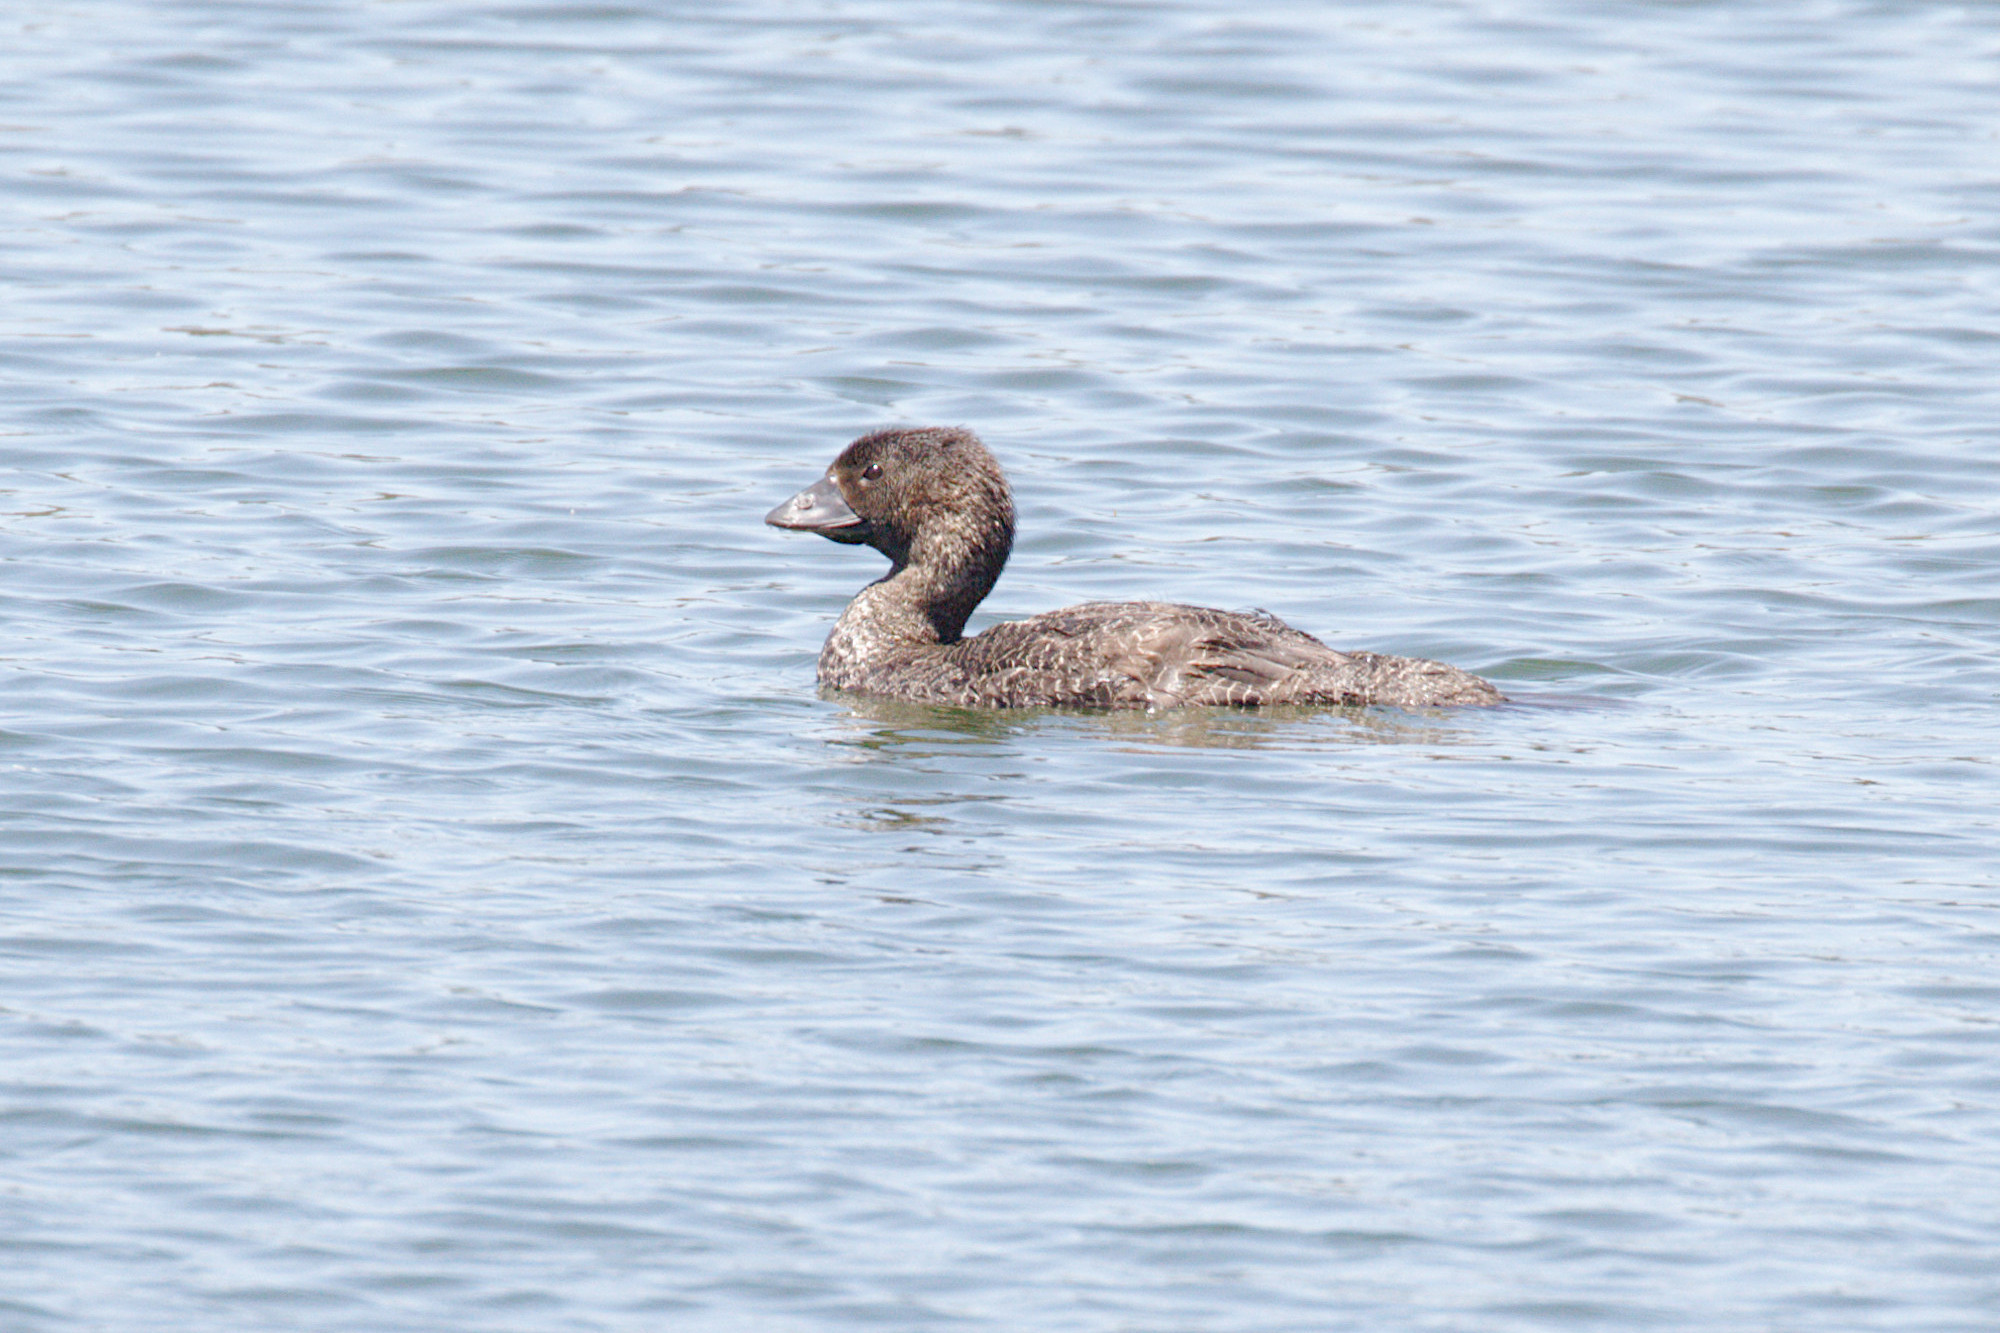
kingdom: Animalia
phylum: Chordata
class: Aves
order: Anseriformes
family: Anatidae
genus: Biziura
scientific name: Biziura lobata
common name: Musk duck
